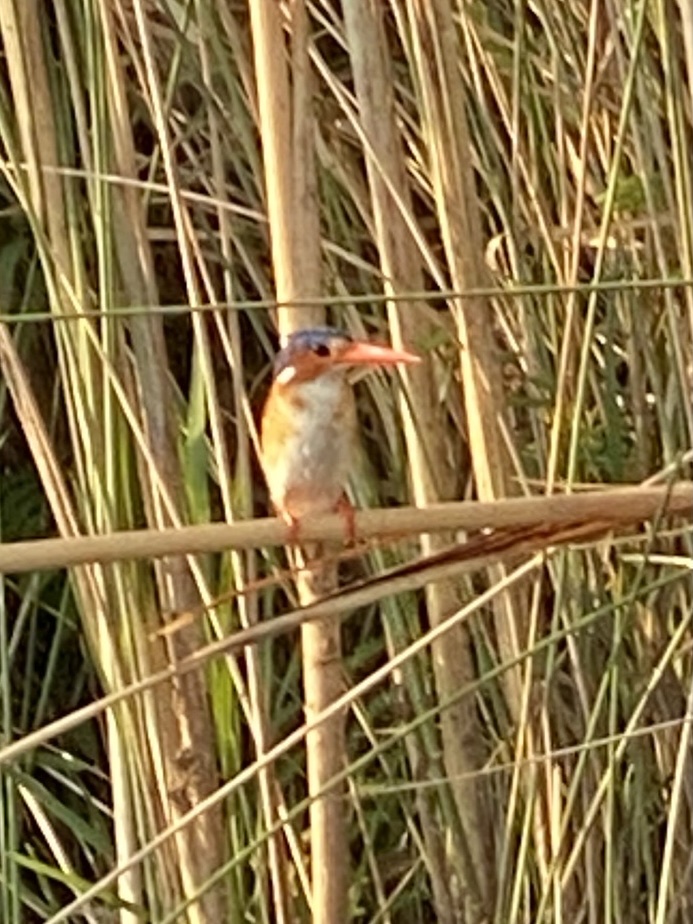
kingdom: Animalia
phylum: Chordata
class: Aves
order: Coraciiformes
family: Alcedinidae
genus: Corythornis
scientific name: Corythornis cristatus
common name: Malachite kingfisher
